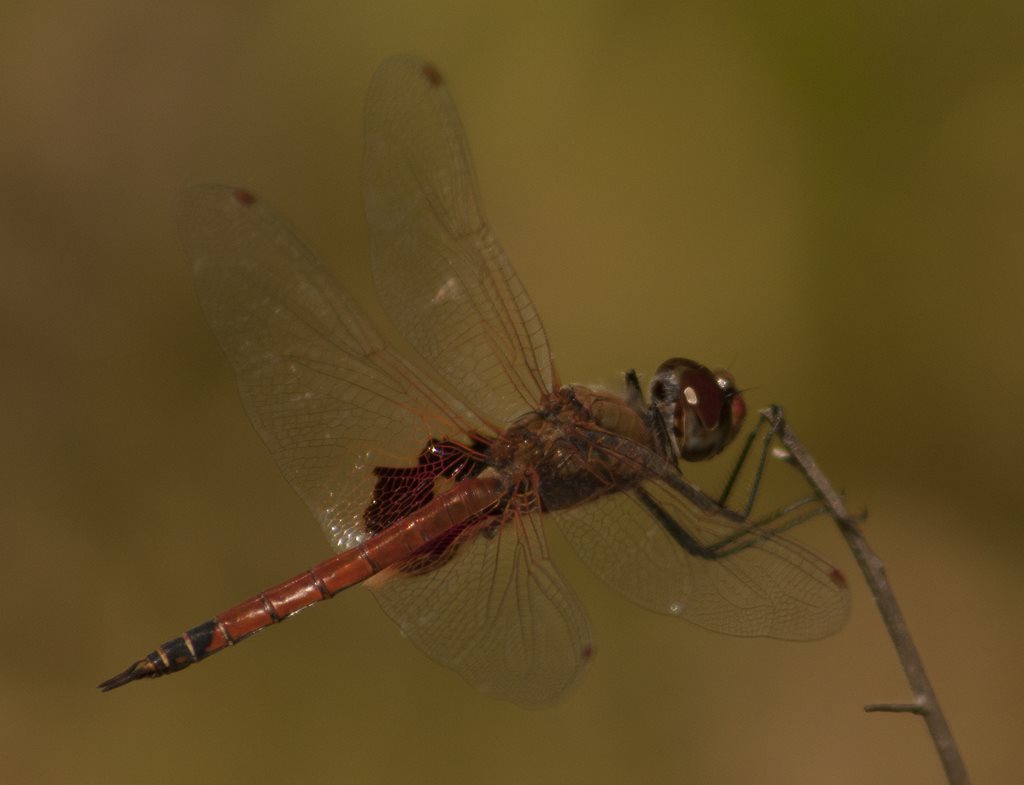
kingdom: Animalia
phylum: Arthropoda
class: Insecta
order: Odonata
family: Libellulidae
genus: Tramea
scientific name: Tramea loewii
